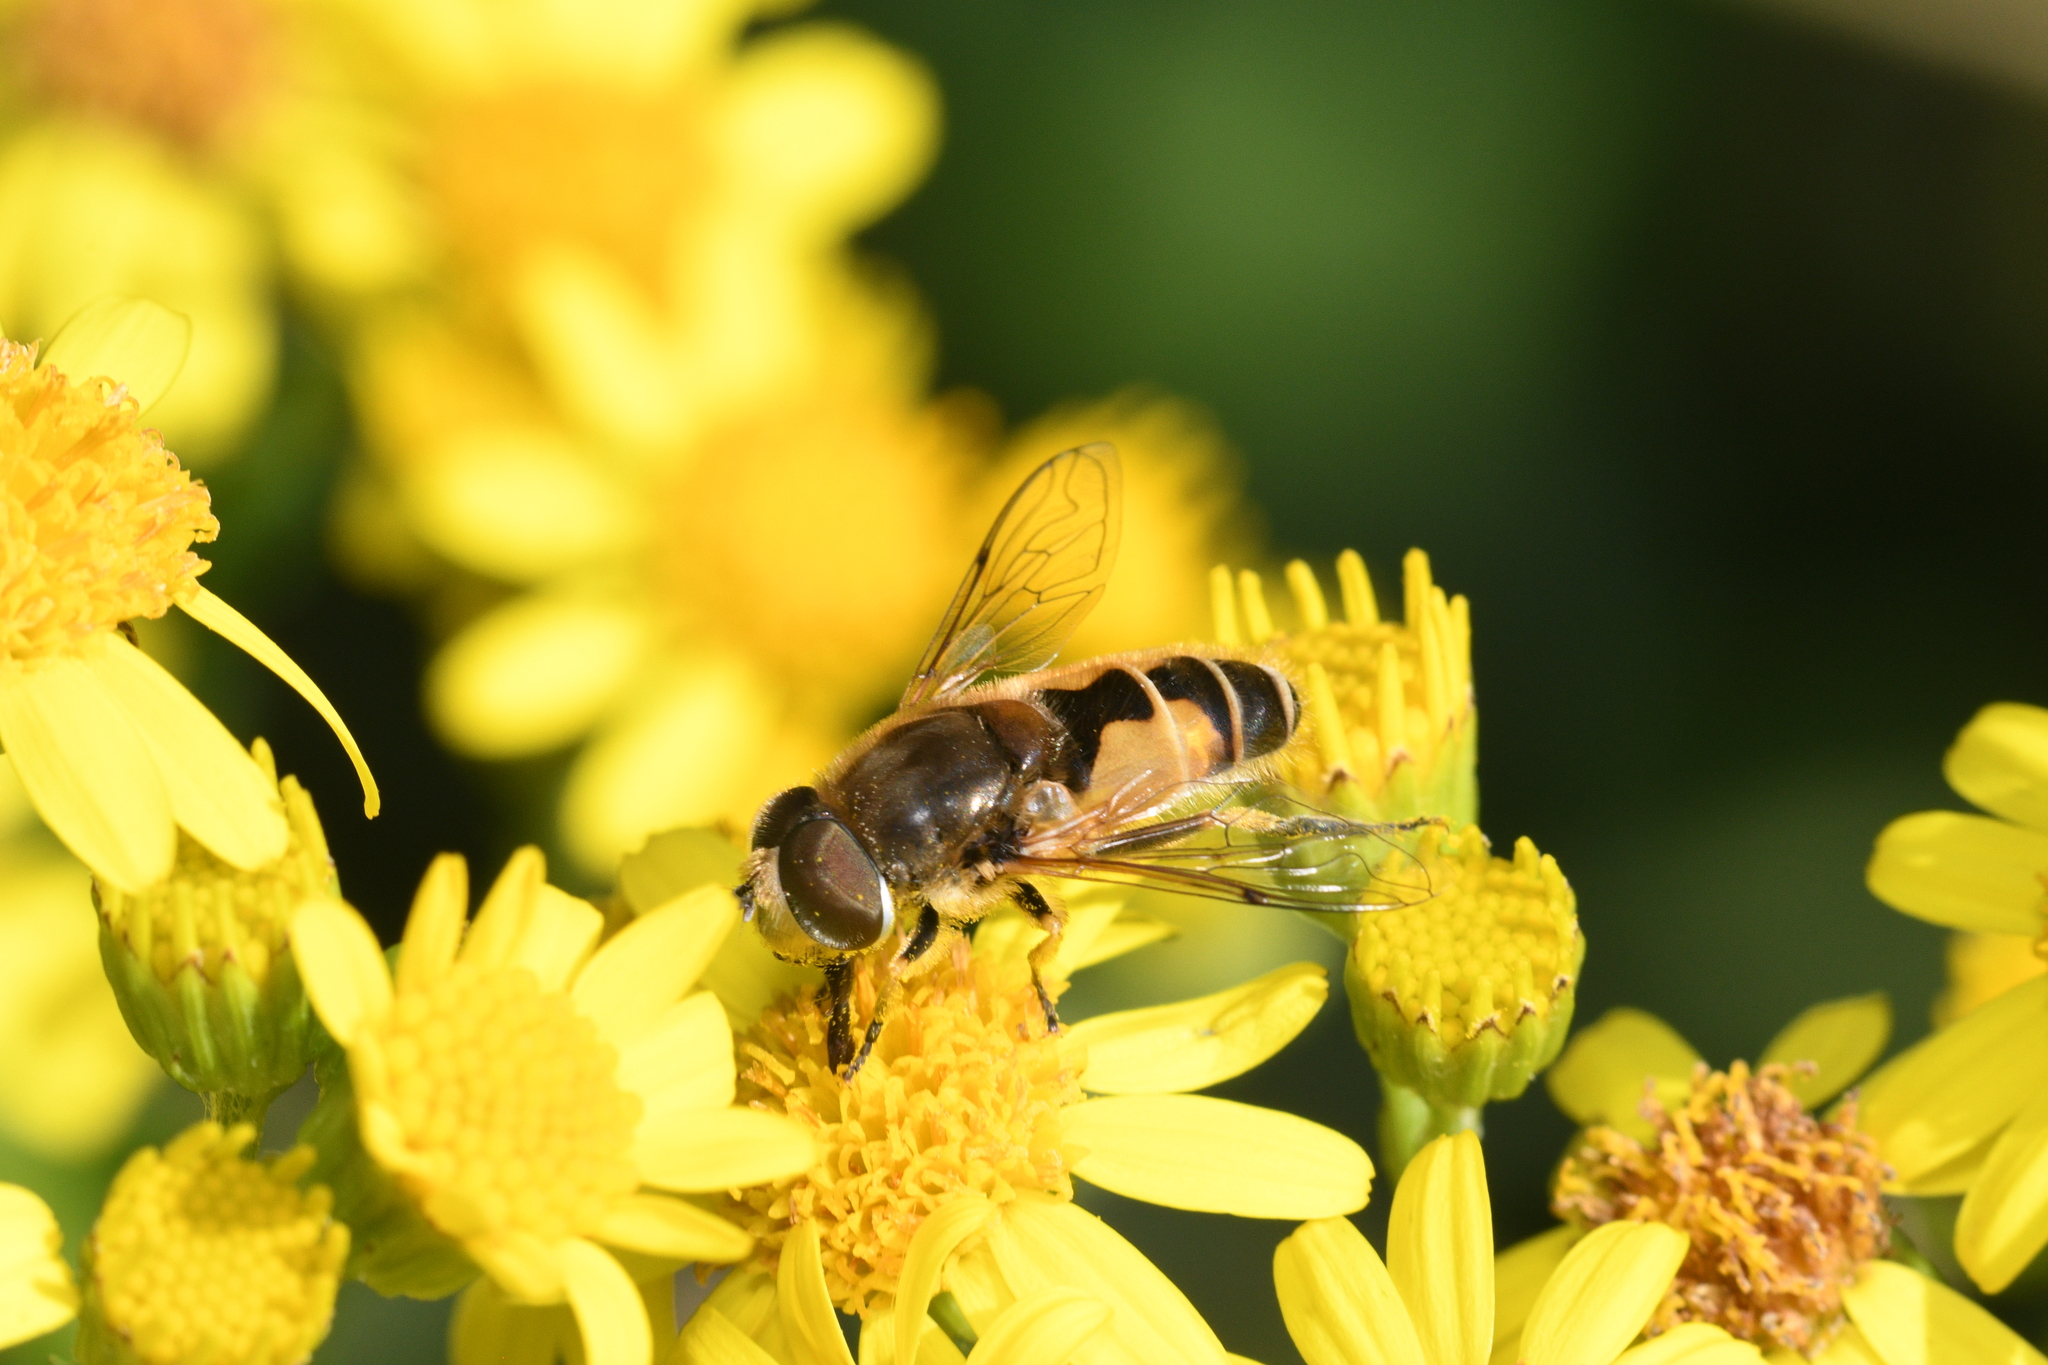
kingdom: Animalia
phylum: Arthropoda
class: Insecta
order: Diptera
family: Syrphidae
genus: Eristalis
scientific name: Eristalis arbustorum
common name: Hover fly
